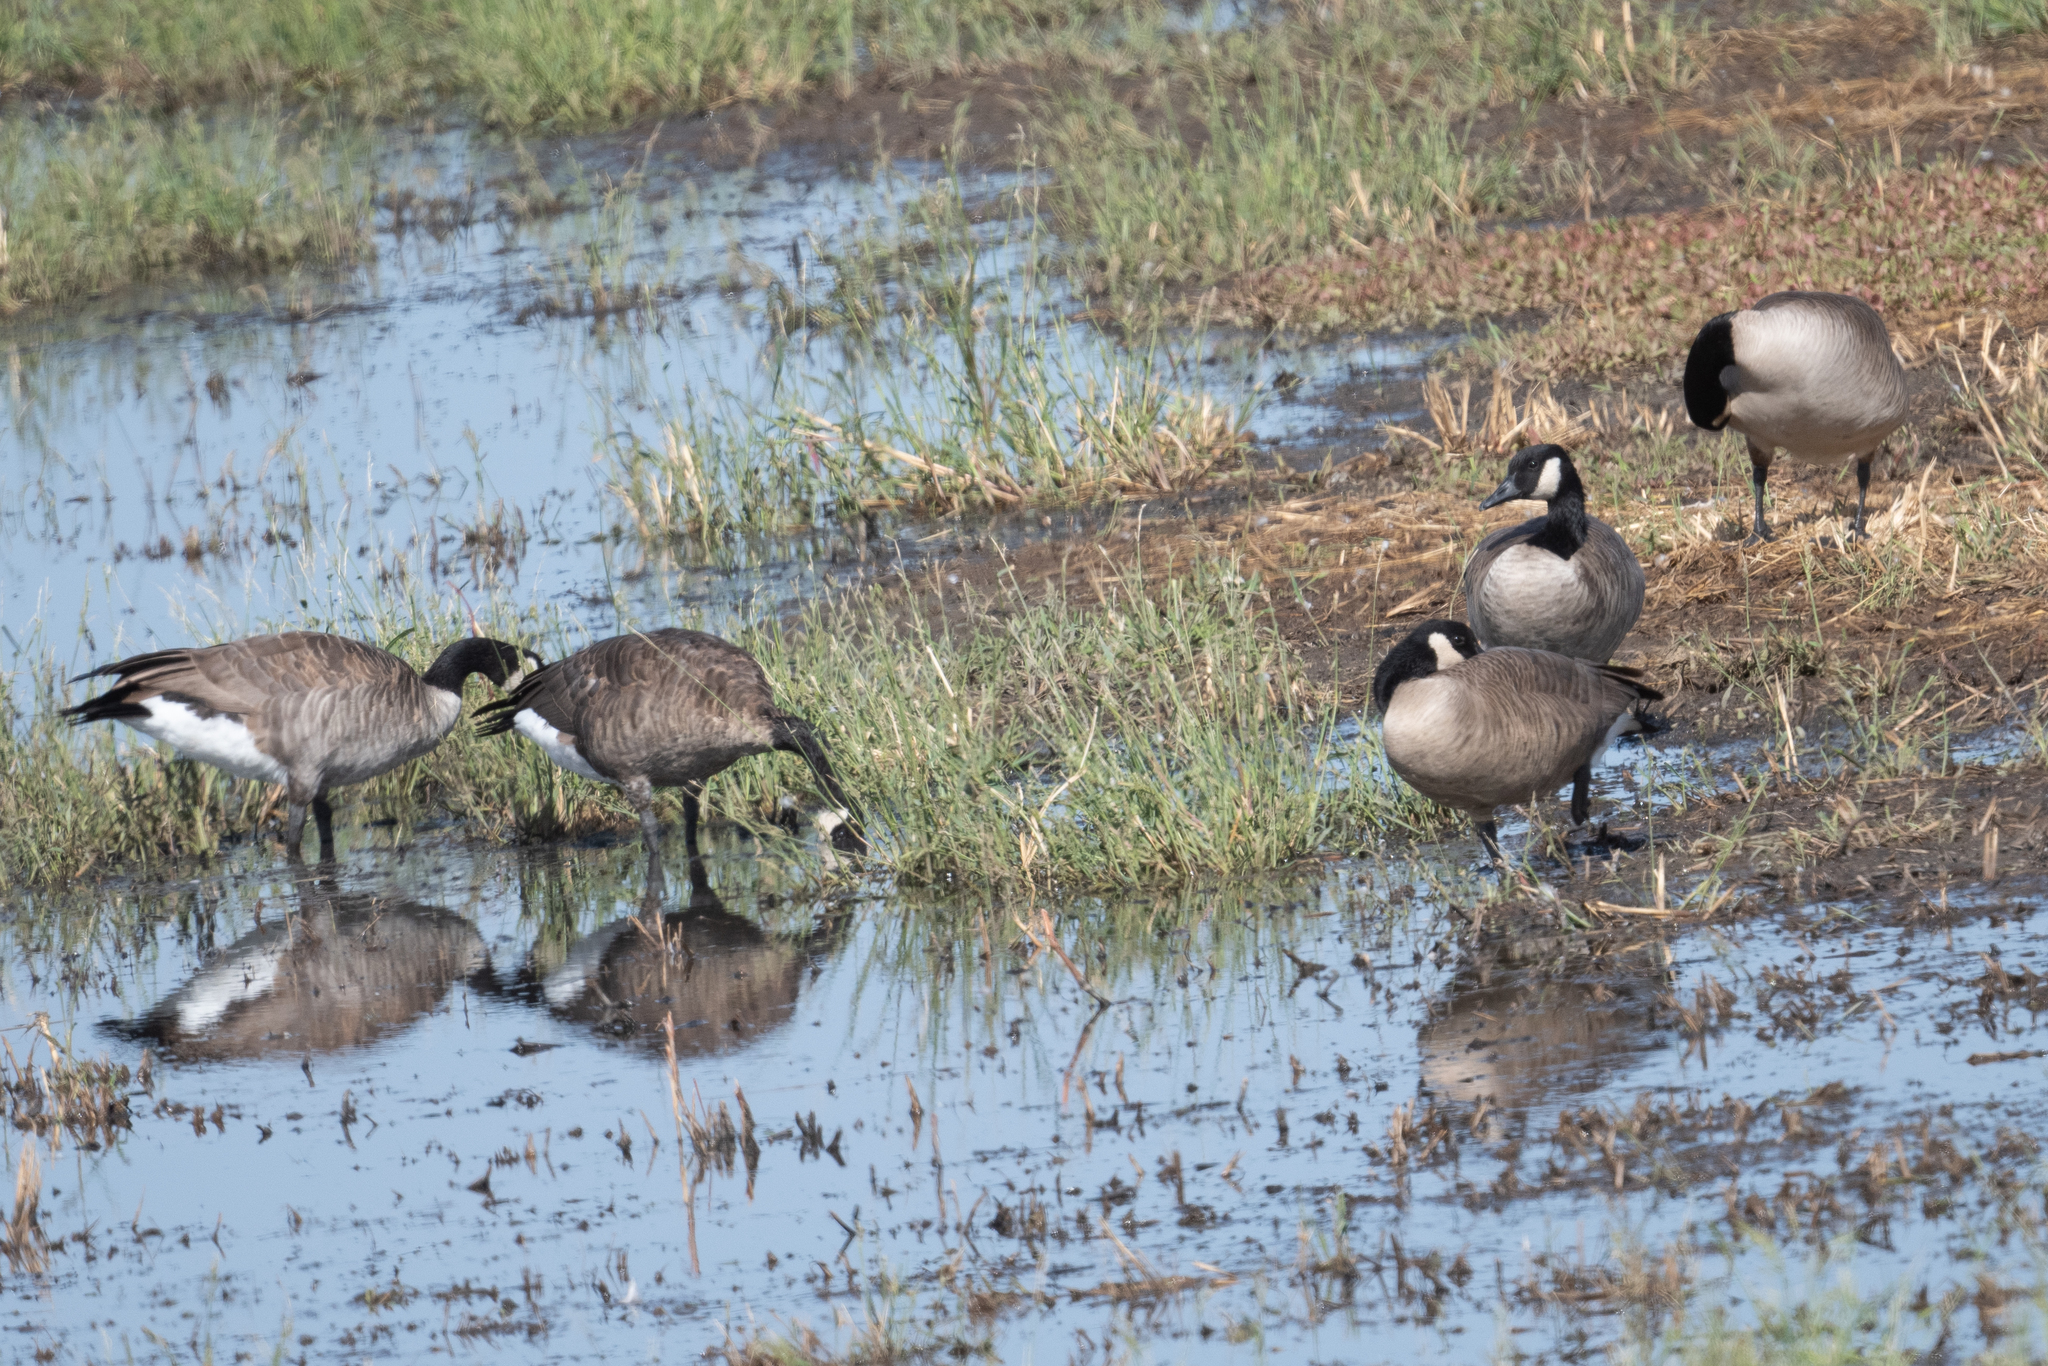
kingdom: Animalia
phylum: Chordata
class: Aves
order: Anseriformes
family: Anatidae
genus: Branta
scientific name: Branta canadensis
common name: Canada goose
